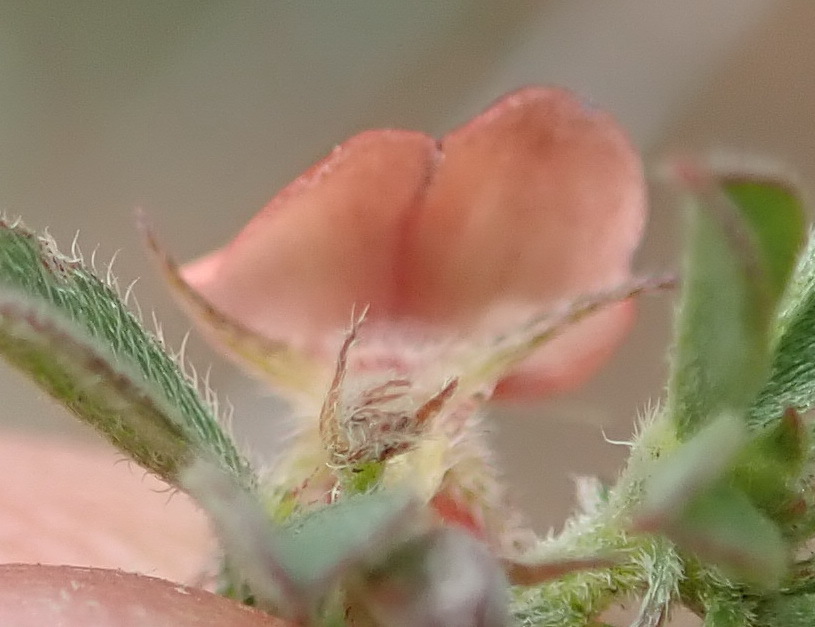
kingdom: Plantae
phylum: Tracheophyta
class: Magnoliopsida
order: Fabales
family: Fabaceae
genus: Indigofera
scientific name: Indigofera priorii
